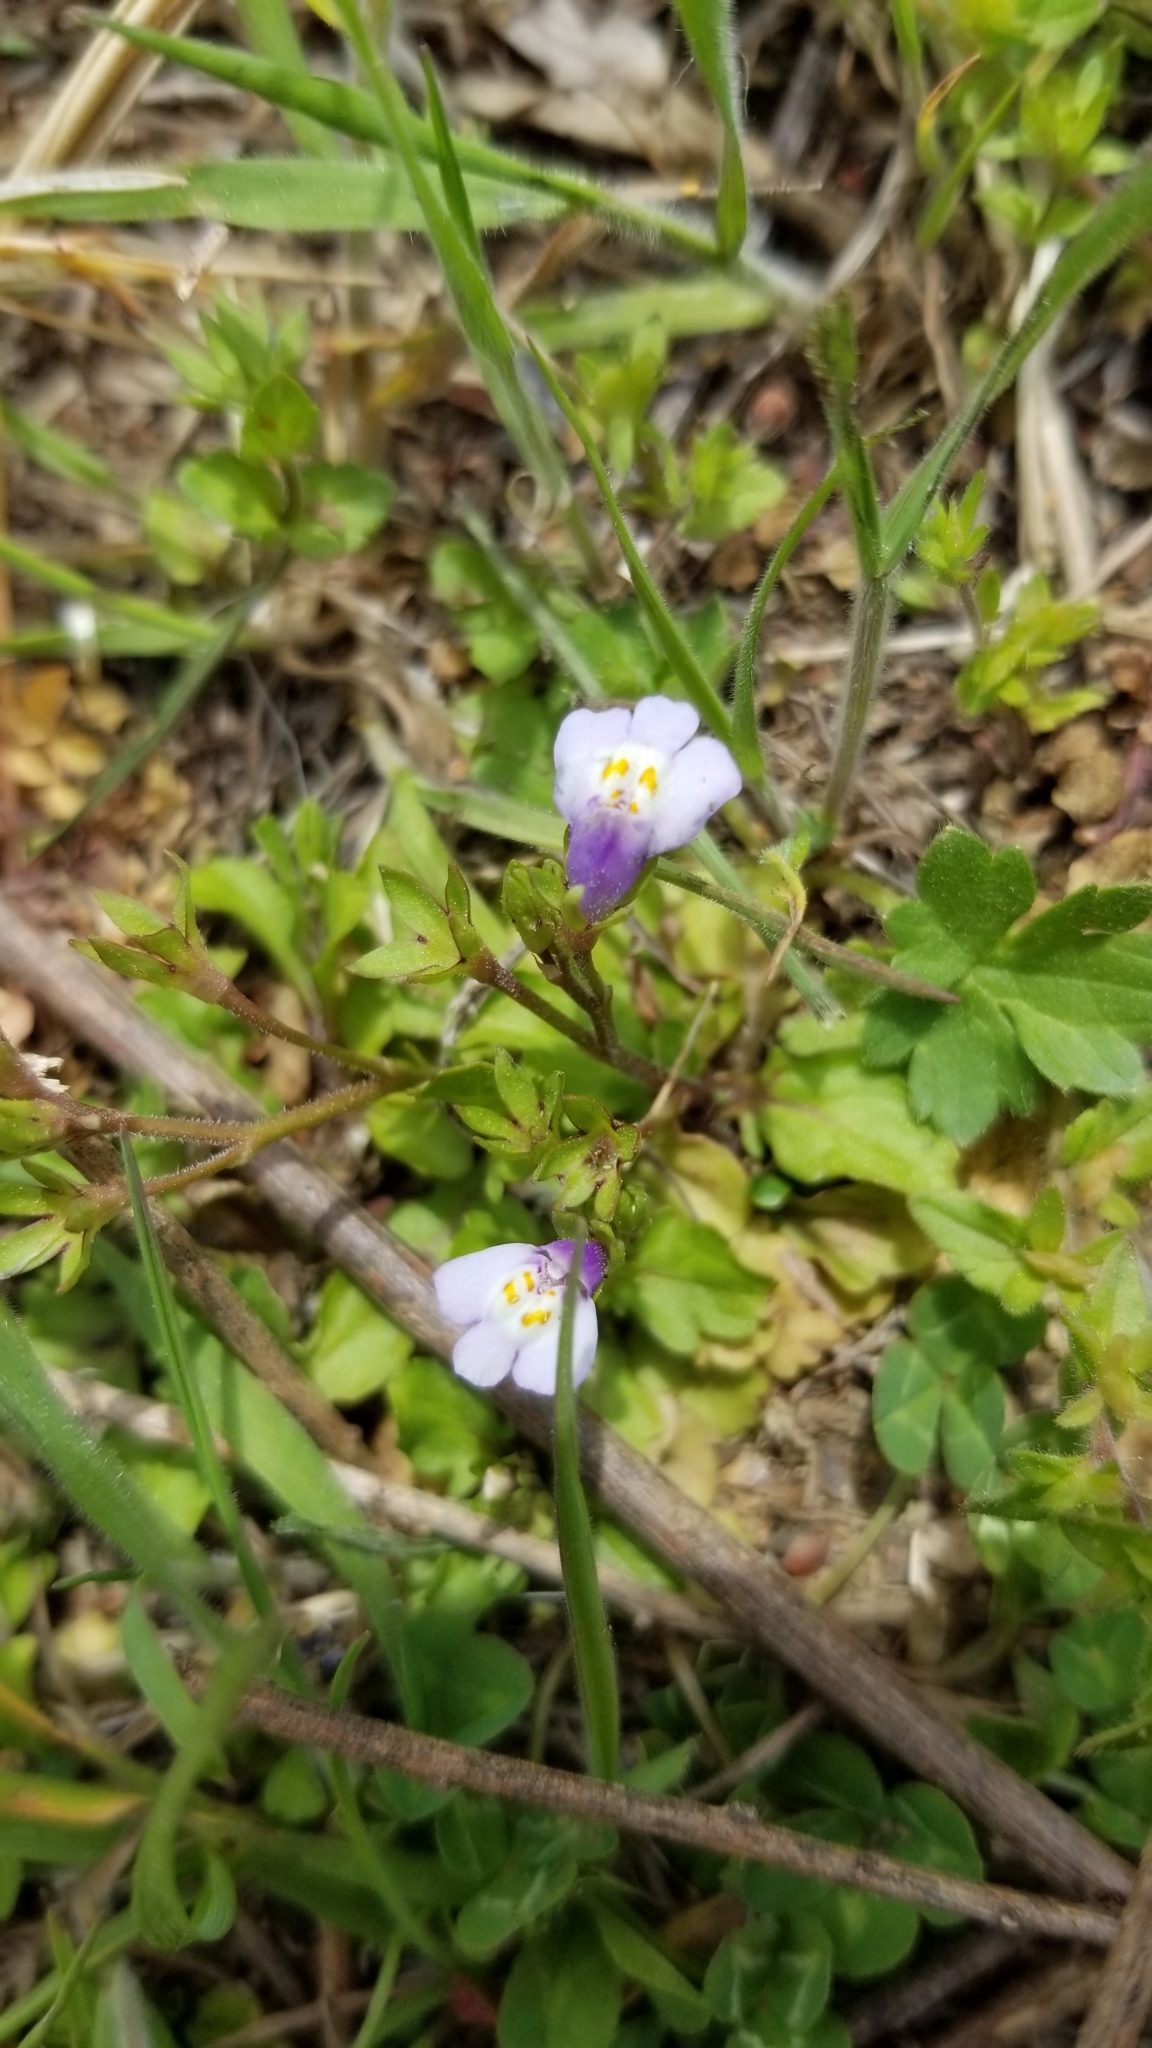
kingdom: Plantae
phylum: Tracheophyta
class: Magnoliopsida
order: Lamiales
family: Mazaceae
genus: Mazus
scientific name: Mazus pumilus
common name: Japanese mazus
